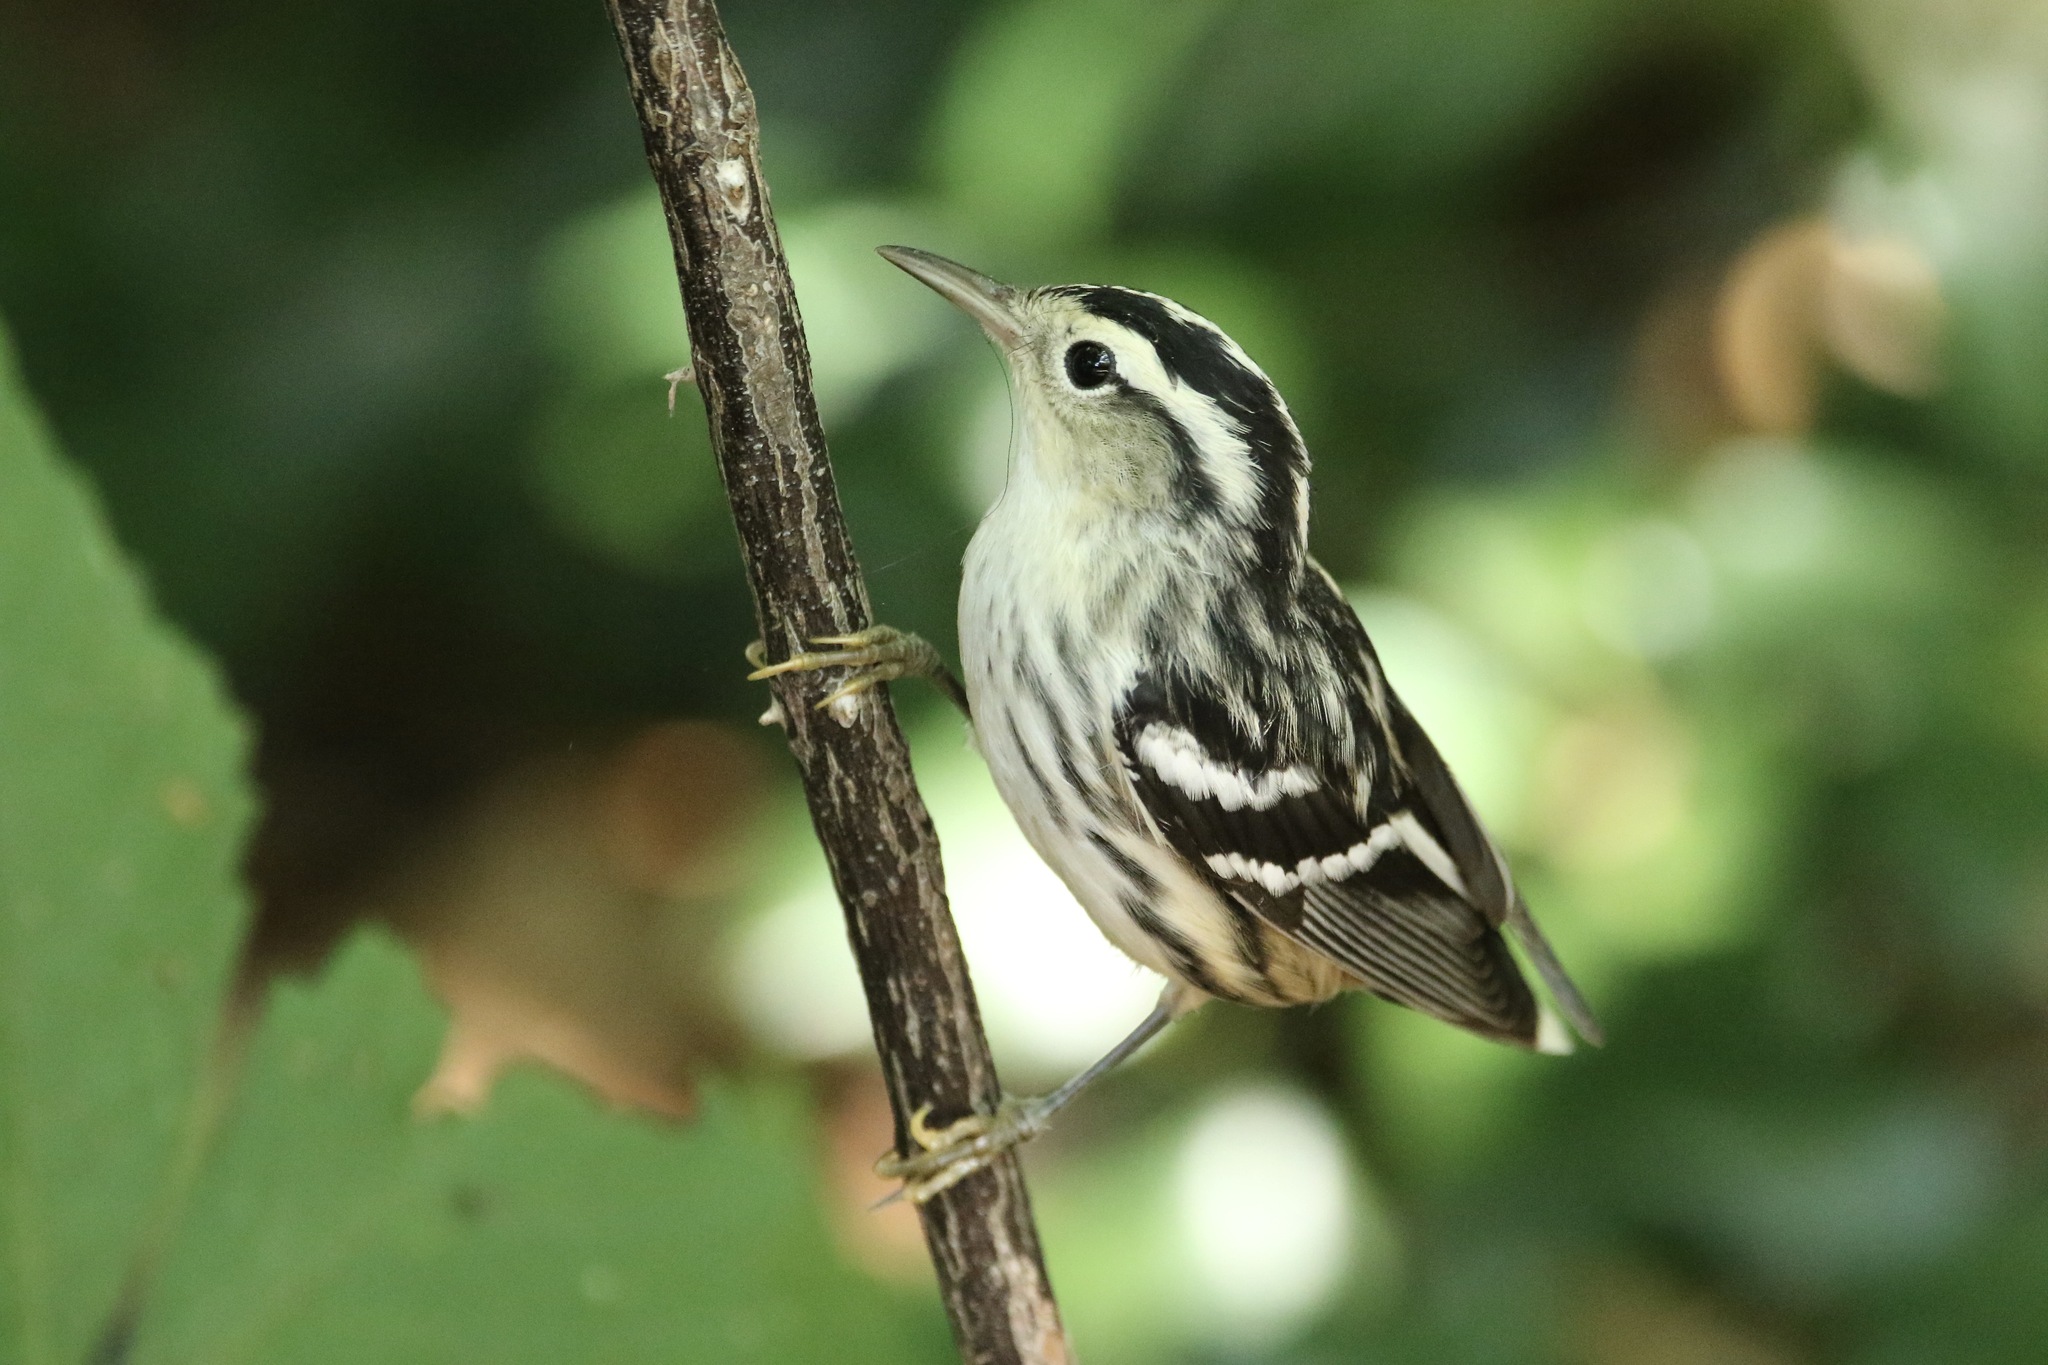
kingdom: Animalia
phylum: Chordata
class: Aves
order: Passeriformes
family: Parulidae
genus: Mniotilta
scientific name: Mniotilta varia
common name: Black-and-white warbler
